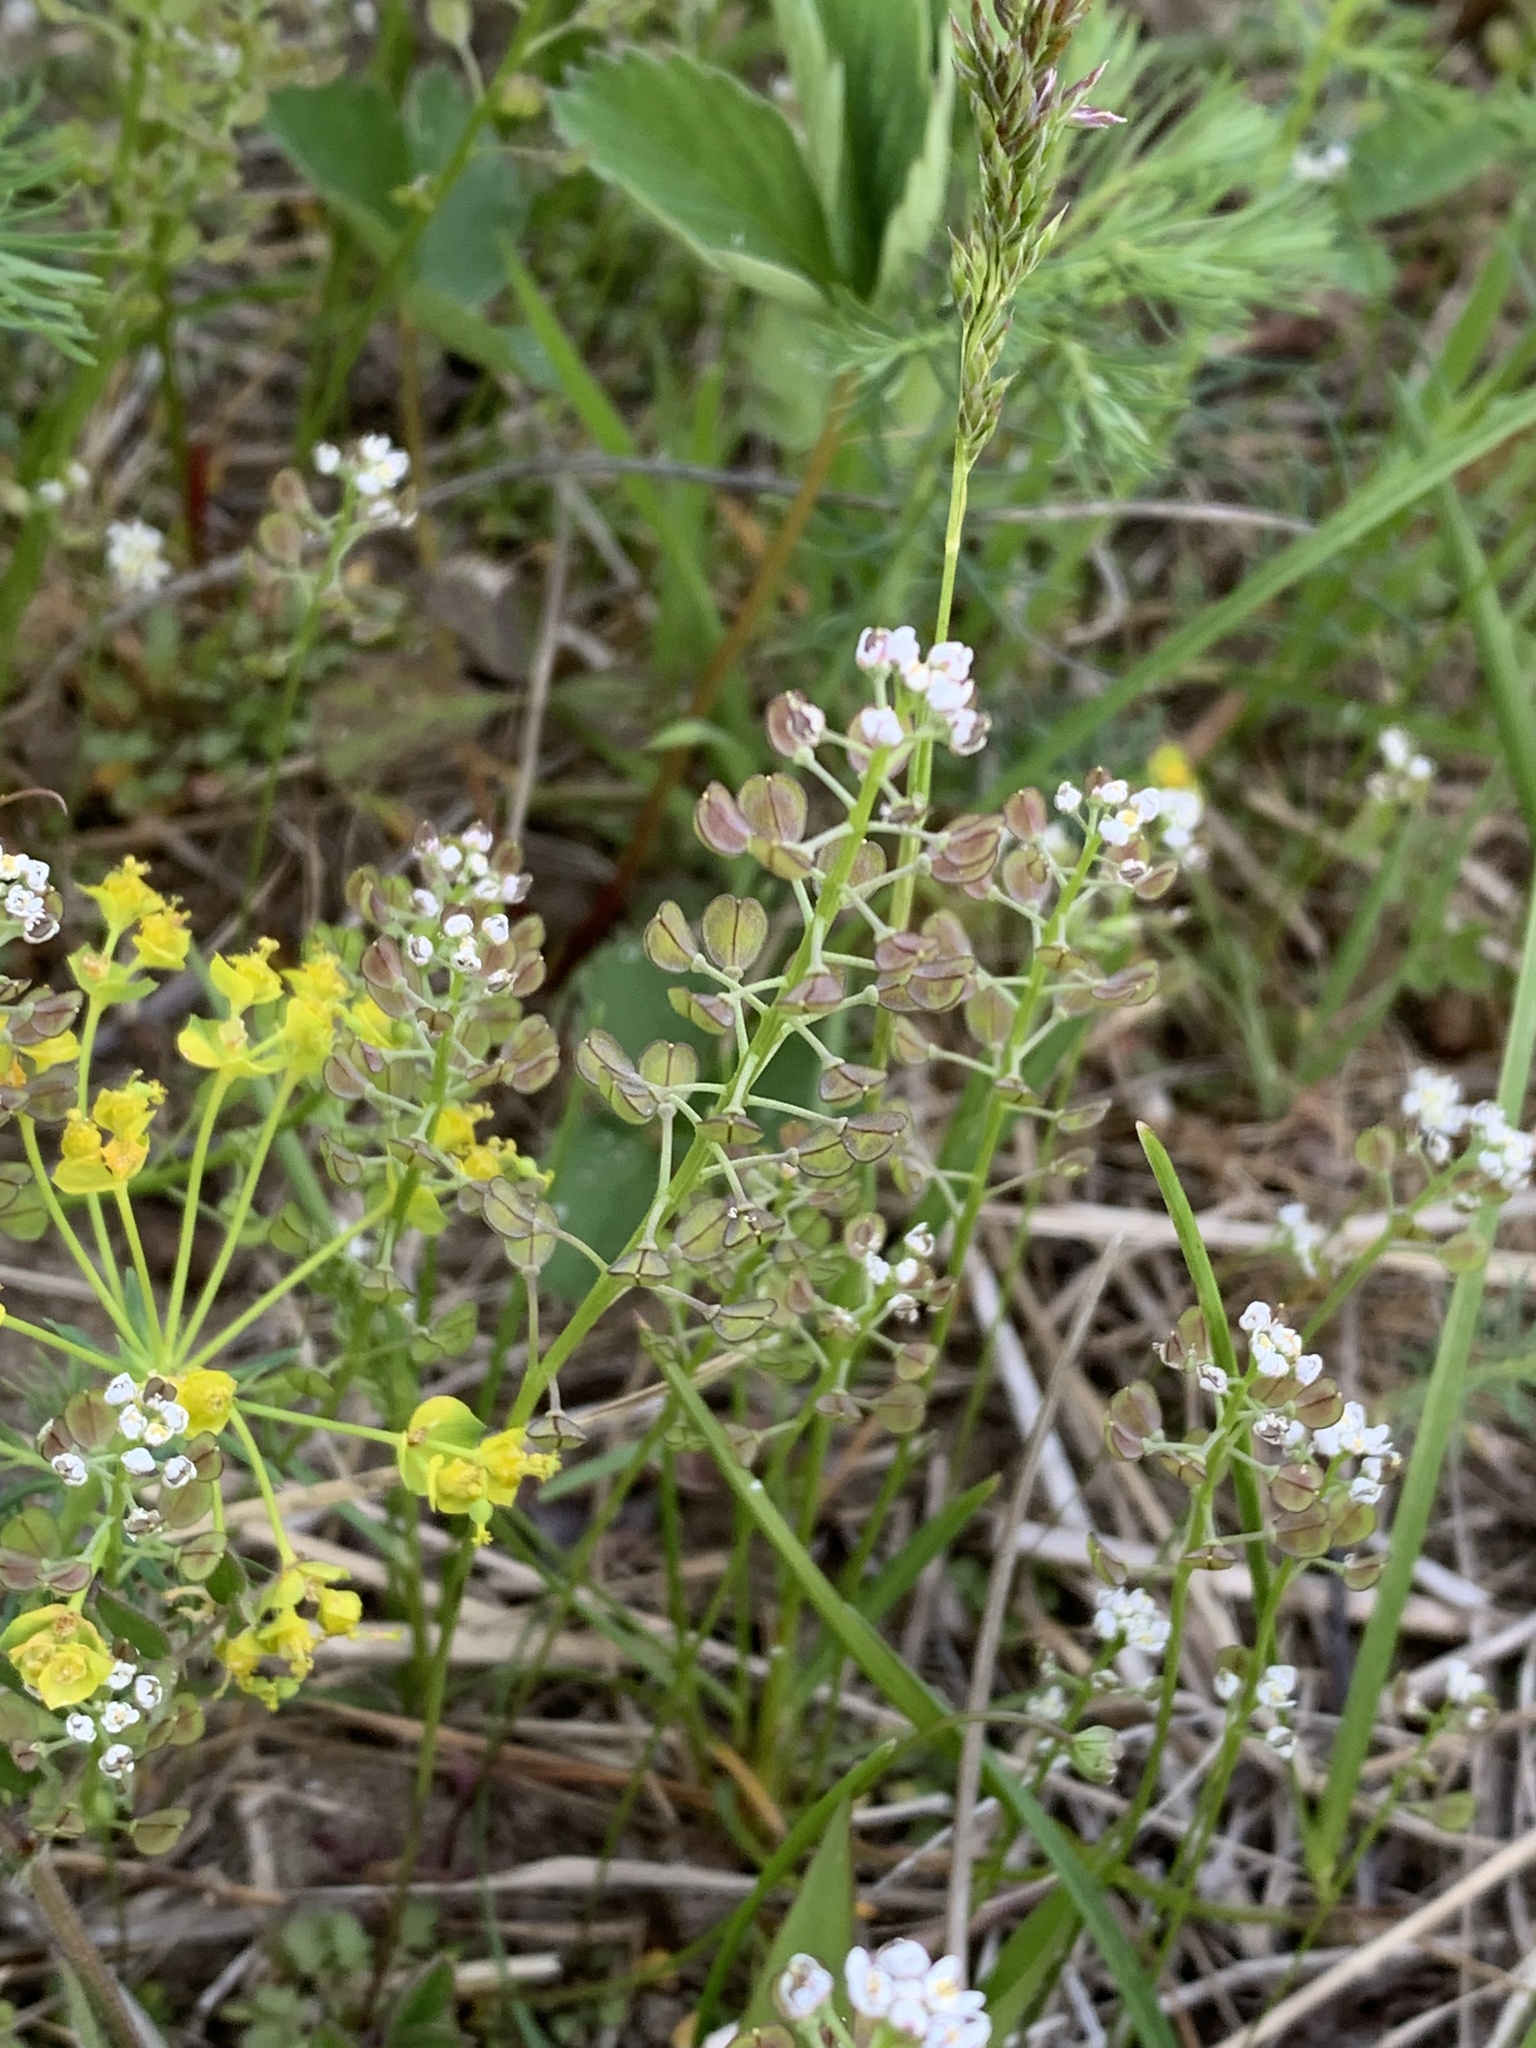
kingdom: Plantae
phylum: Tracheophyta
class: Magnoliopsida
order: Brassicales
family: Brassicaceae
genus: Teesdalia
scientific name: Teesdalia nudicaulis
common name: Shepherd's cress
